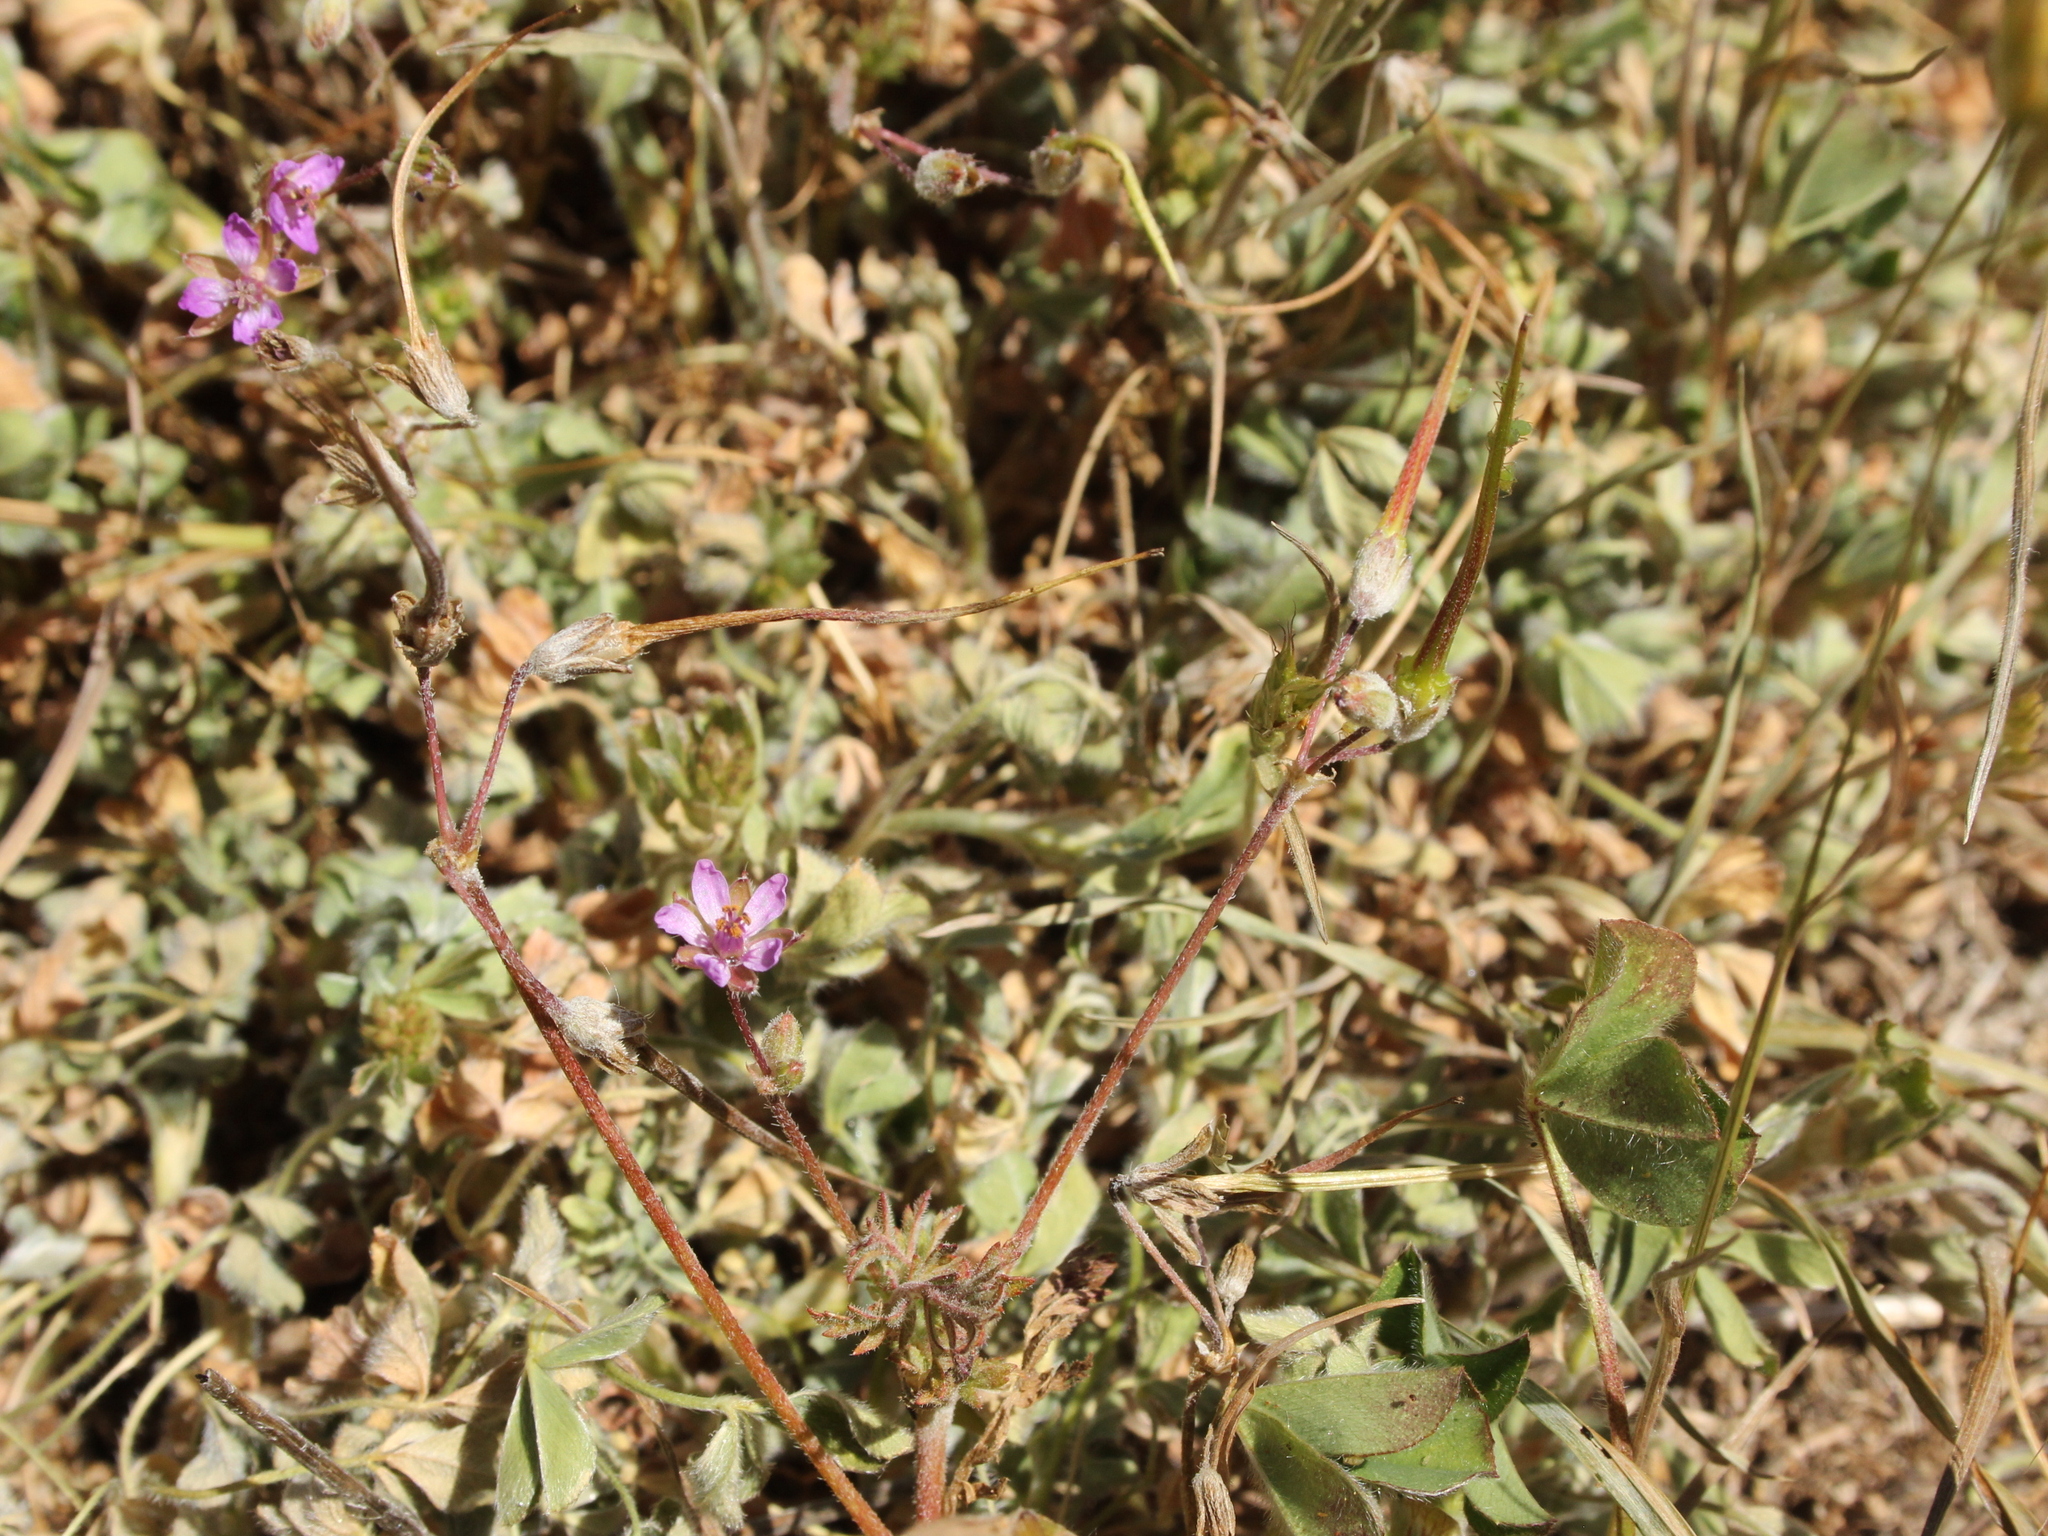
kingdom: Plantae
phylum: Tracheophyta
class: Magnoliopsida
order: Geraniales
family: Geraniaceae
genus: Erodium
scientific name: Erodium cicutarium
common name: Common stork's-bill
